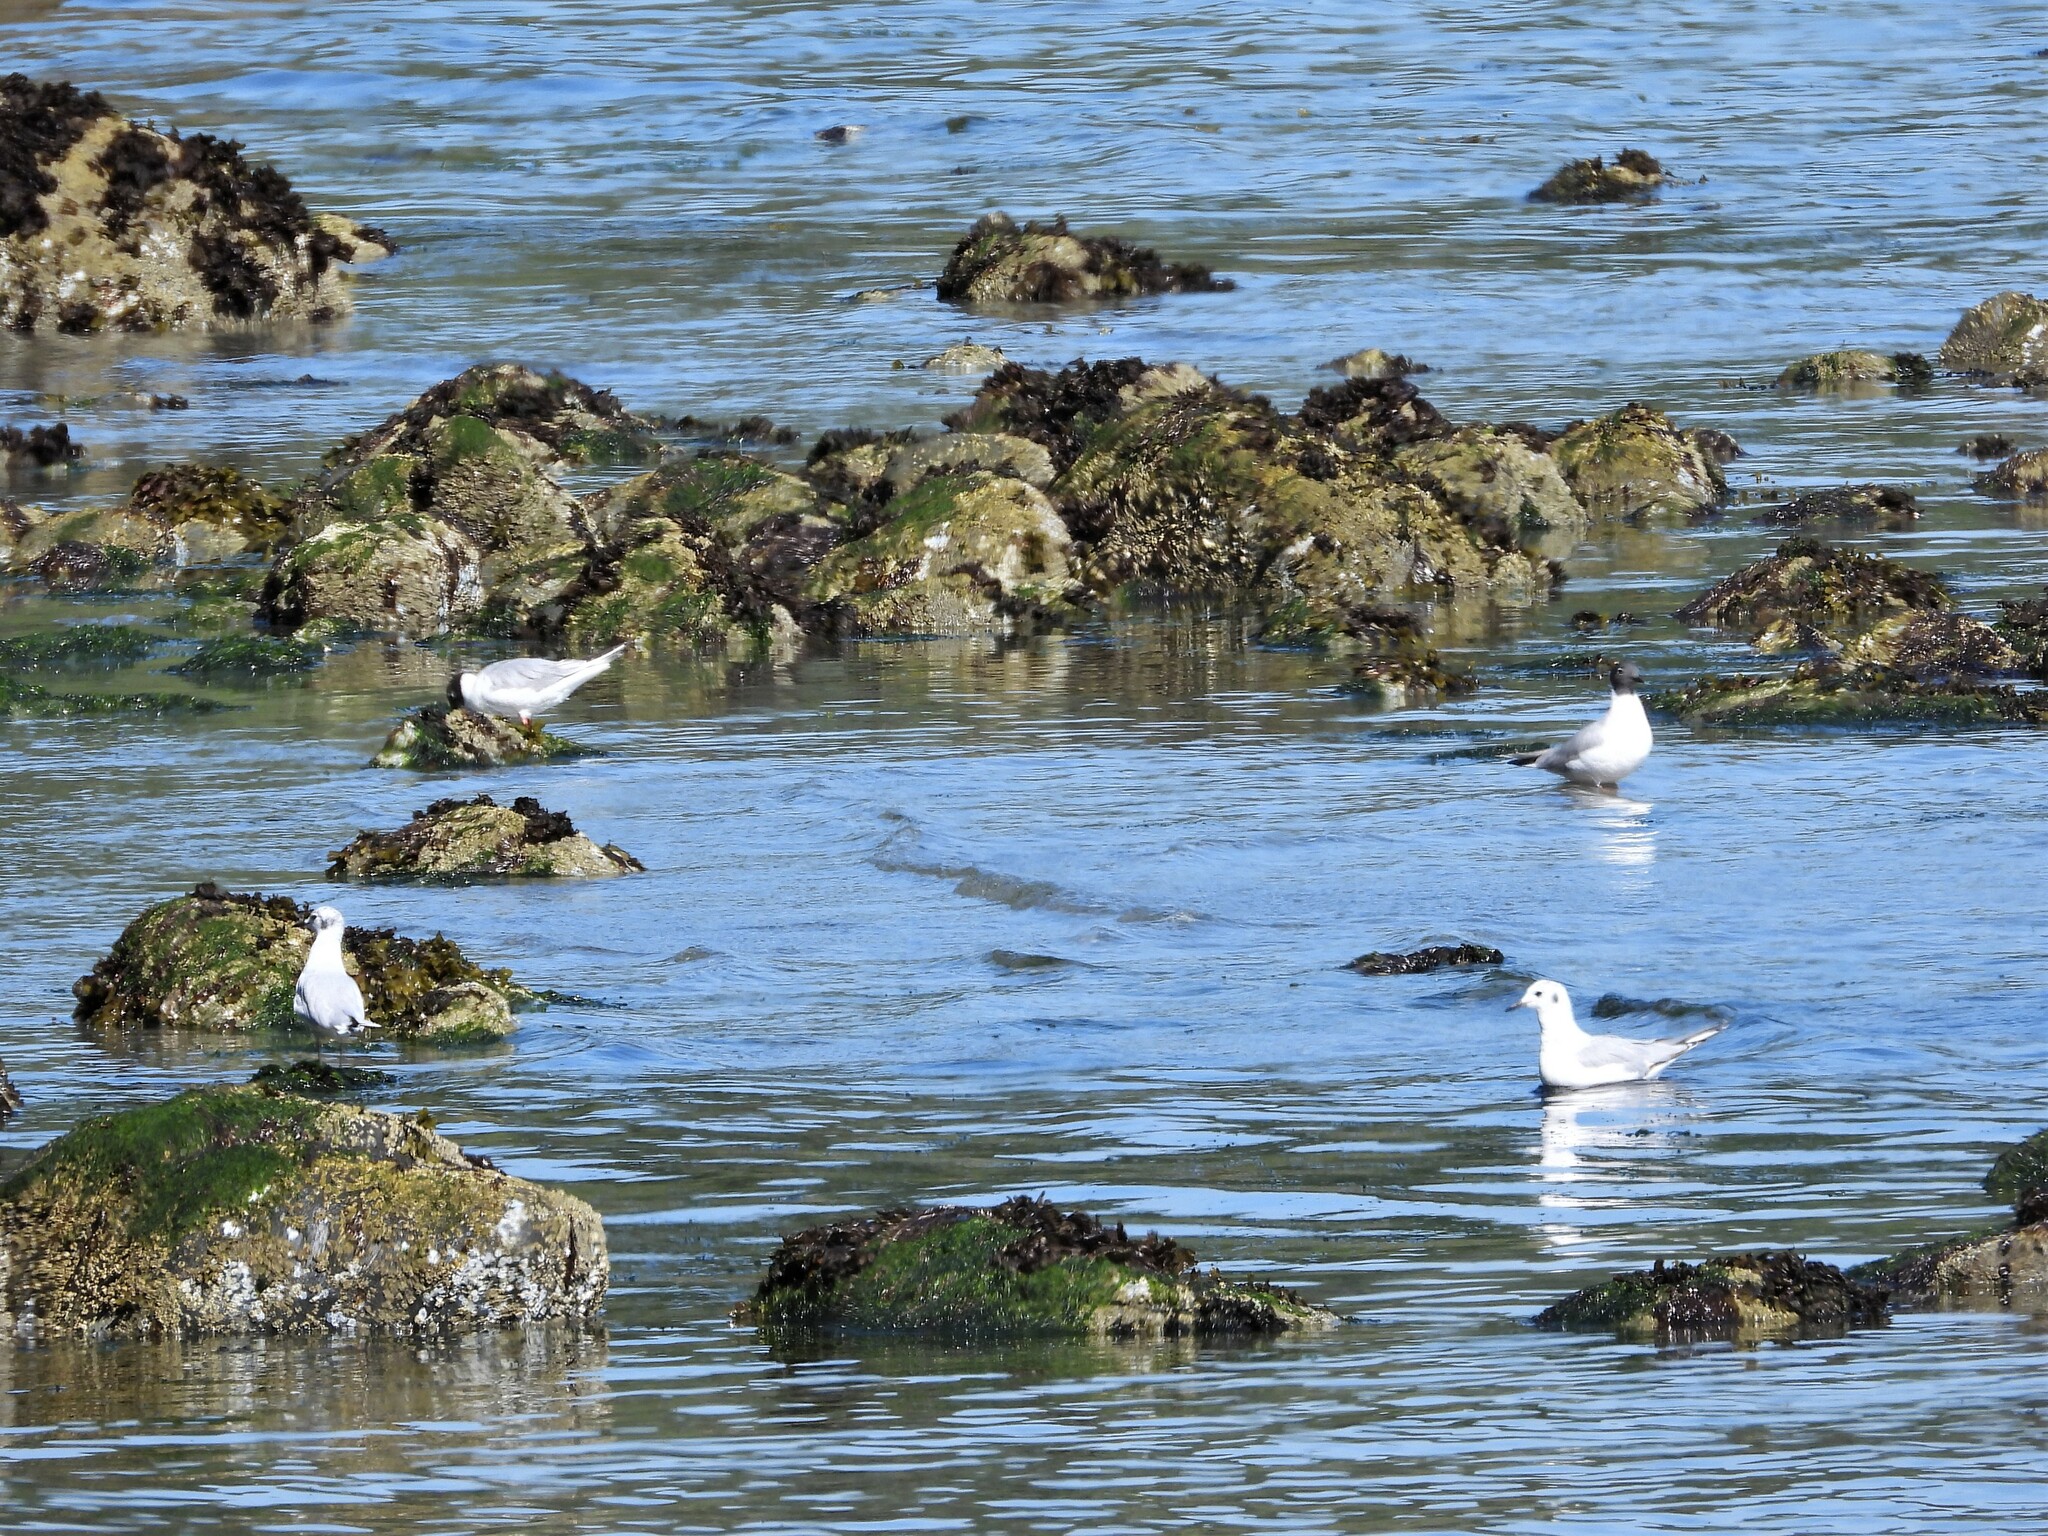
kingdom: Animalia
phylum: Chordata
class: Aves
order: Charadriiformes
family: Laridae
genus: Chroicocephalus
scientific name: Chroicocephalus philadelphia
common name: Bonaparte's gull
